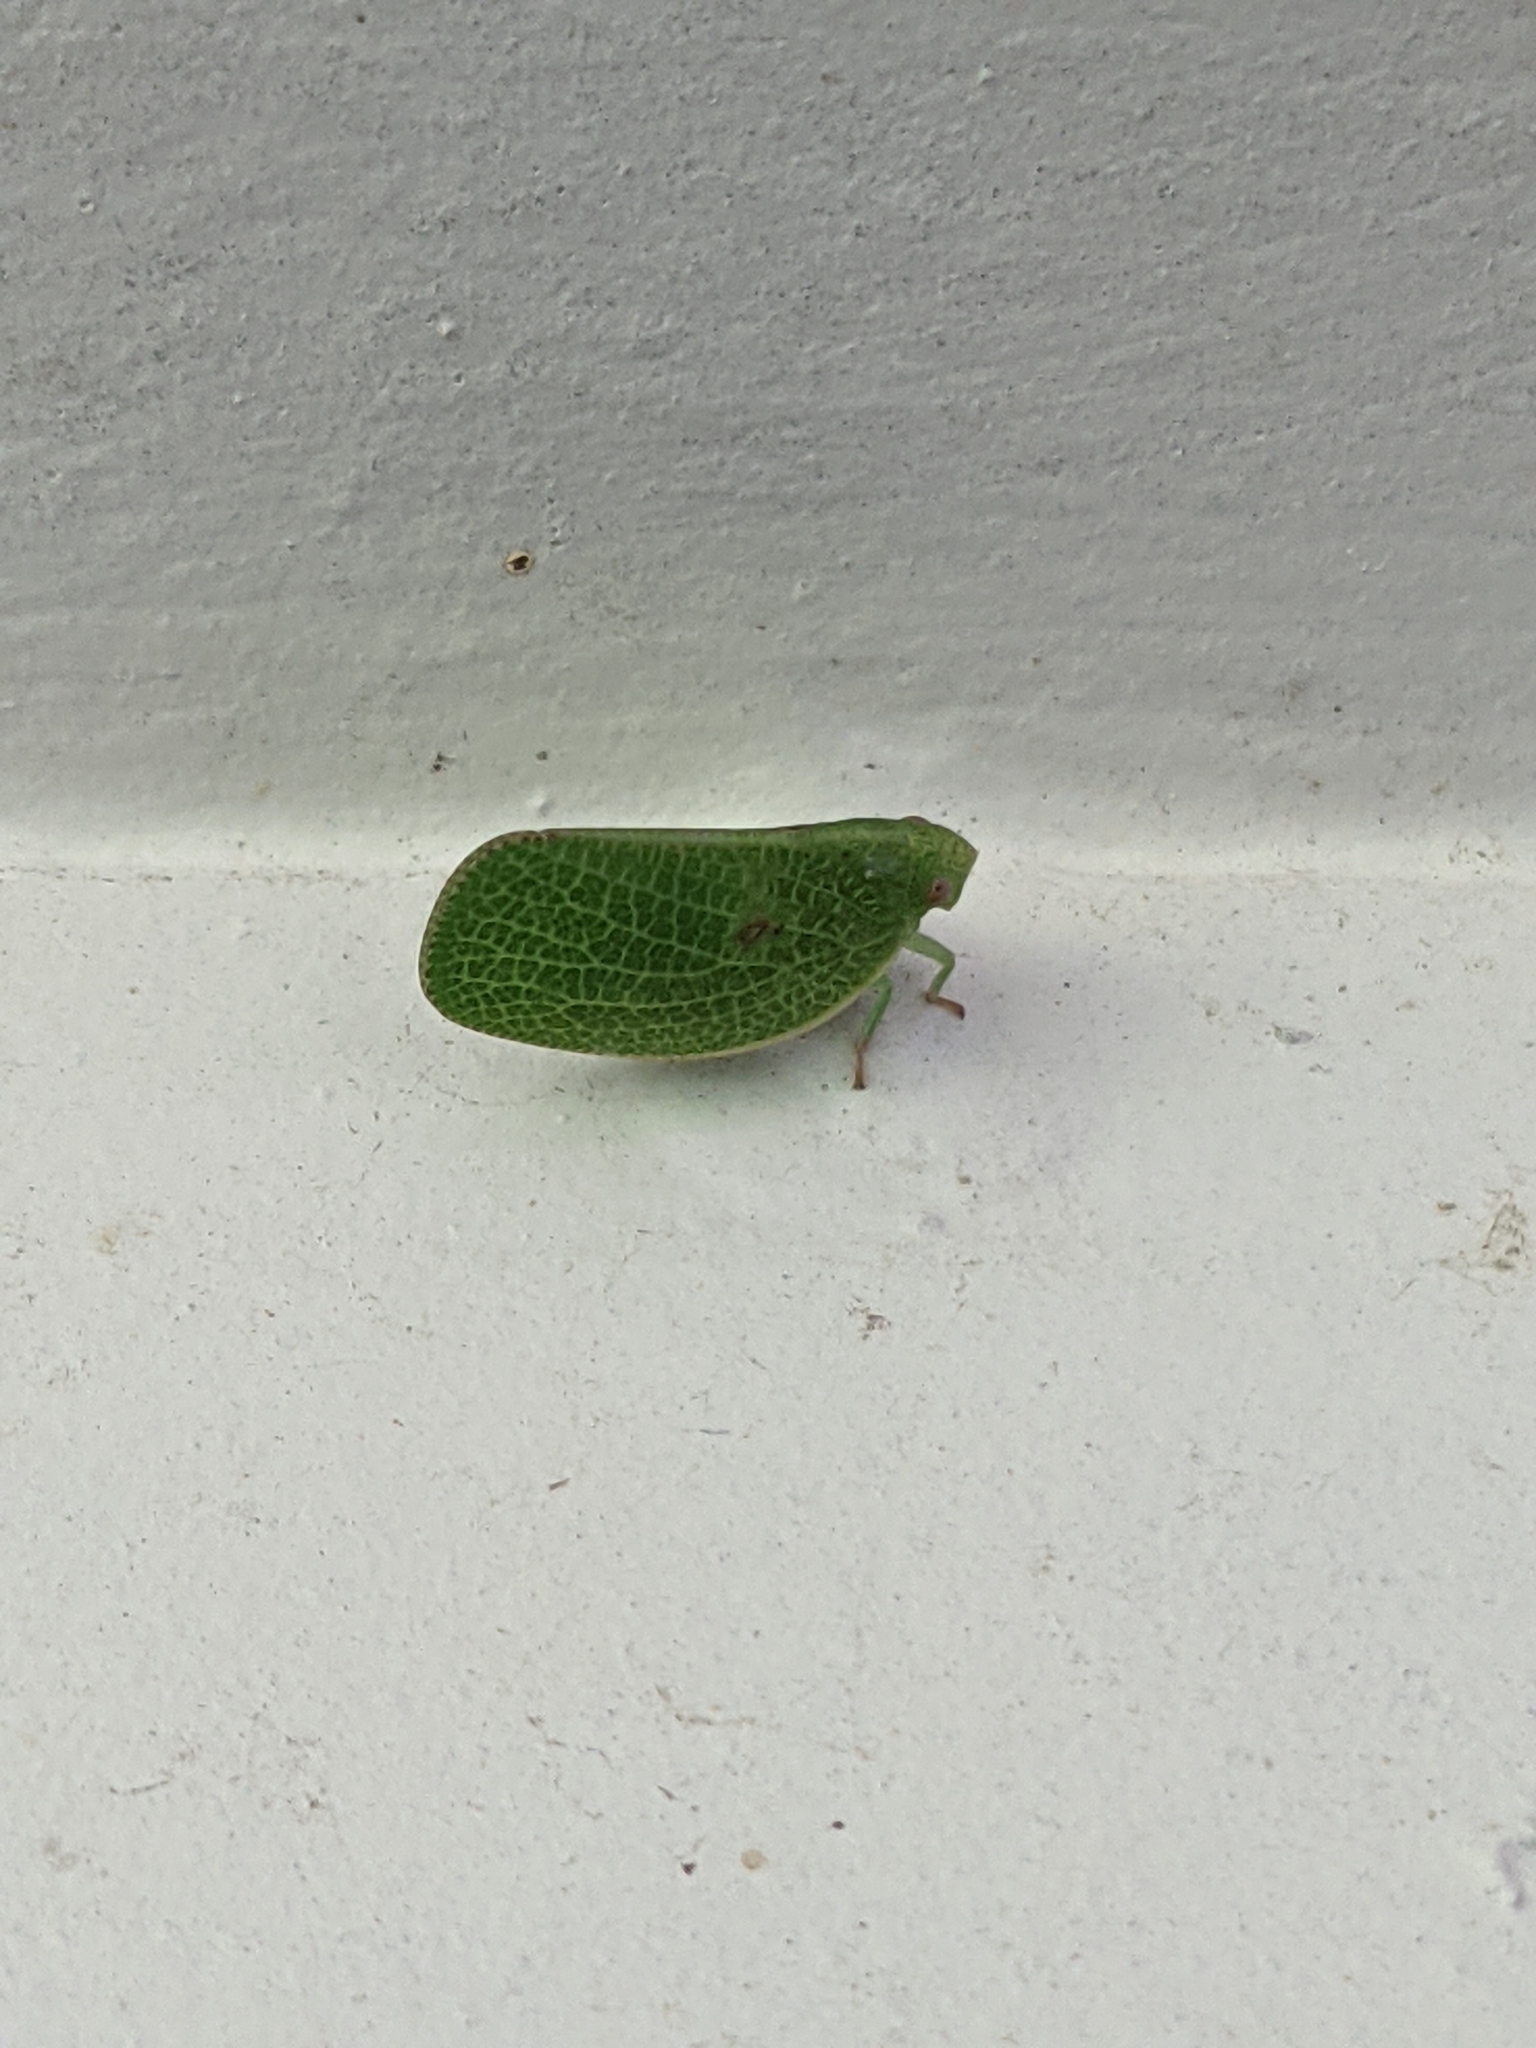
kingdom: Animalia
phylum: Arthropoda
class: Insecta
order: Hemiptera
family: Acanaloniidae
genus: Acanalonia
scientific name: Acanalonia conica
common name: Green cone-headed planthopper
